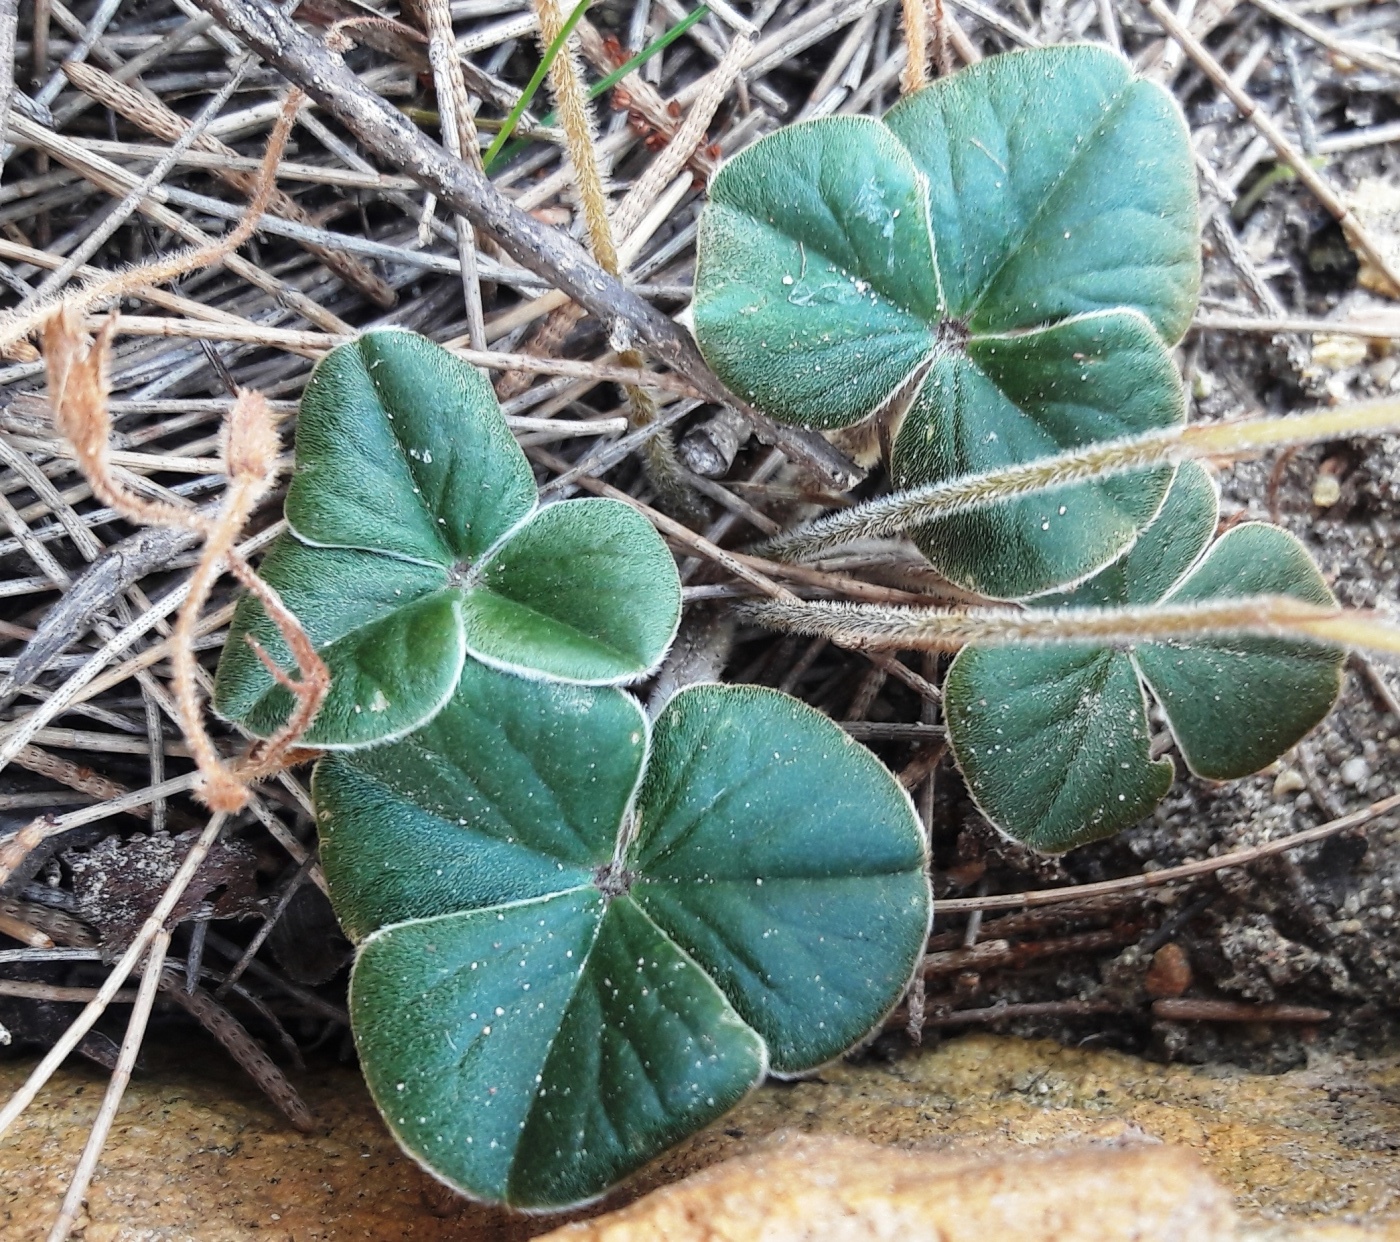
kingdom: Plantae
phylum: Tracheophyta
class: Magnoliopsida
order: Oxalidales
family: Oxalidaceae
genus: Oxalis
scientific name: Oxalis truncatula
